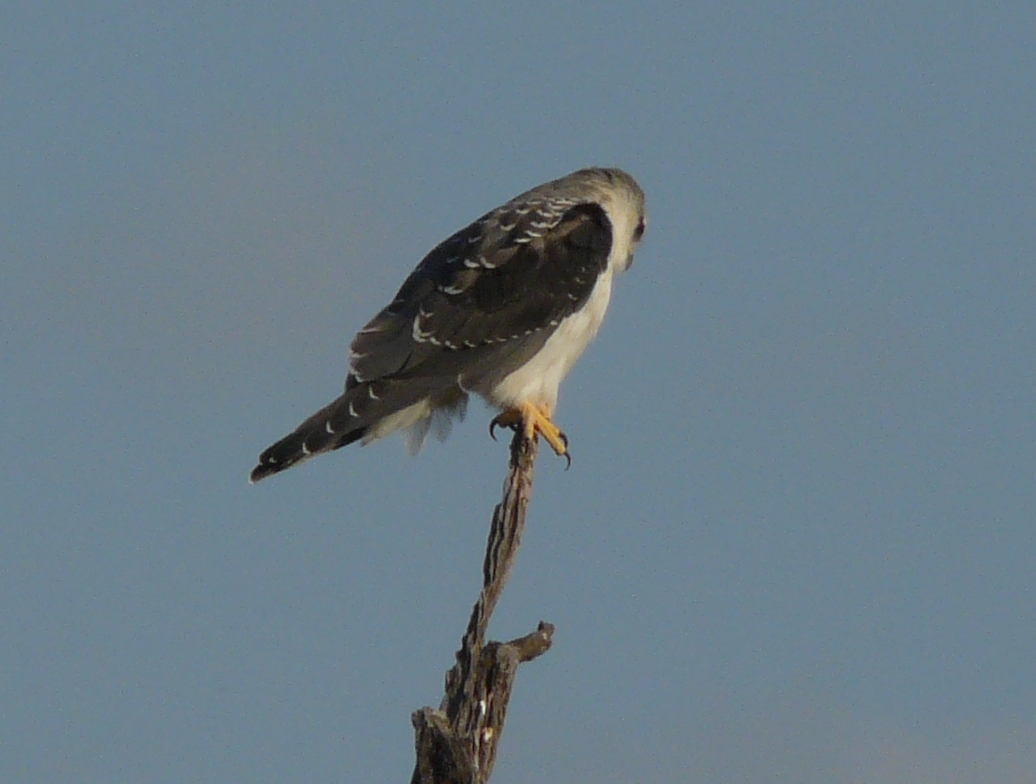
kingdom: Animalia
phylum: Chordata
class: Aves
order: Accipitriformes
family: Accipitridae
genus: Elanus
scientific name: Elanus caeruleus
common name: Black-winged kite
